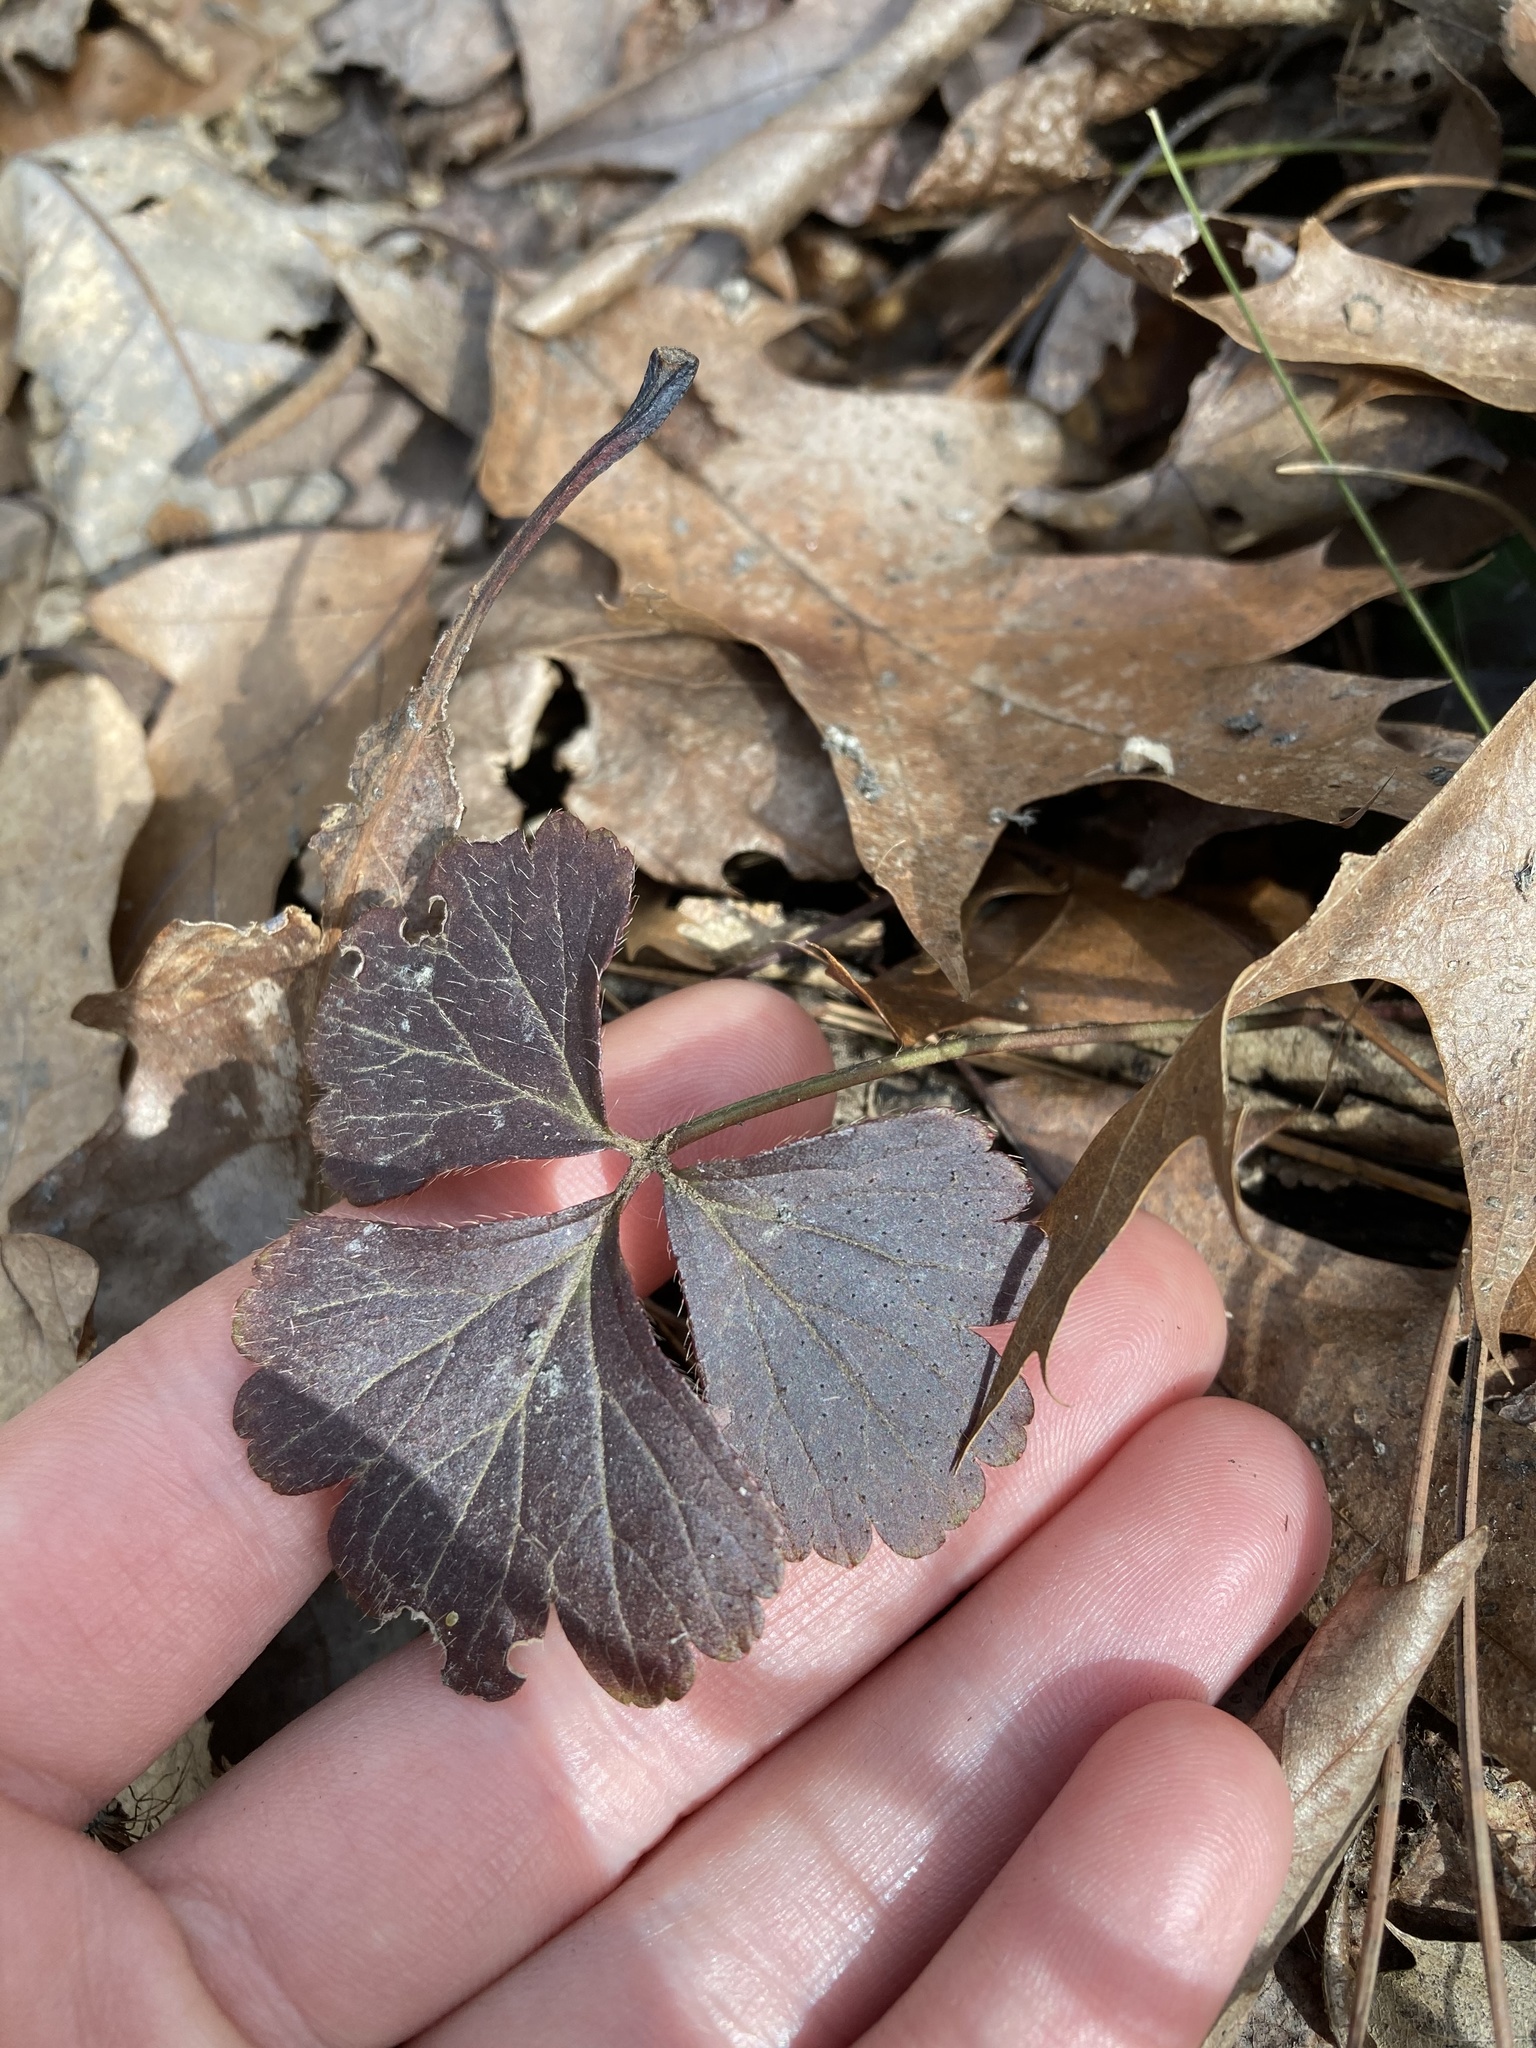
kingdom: Plantae
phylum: Tracheophyta
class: Magnoliopsida
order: Rosales
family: Rosaceae
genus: Geum
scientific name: Geum fragarioides
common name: Appalachian barren strawberry
